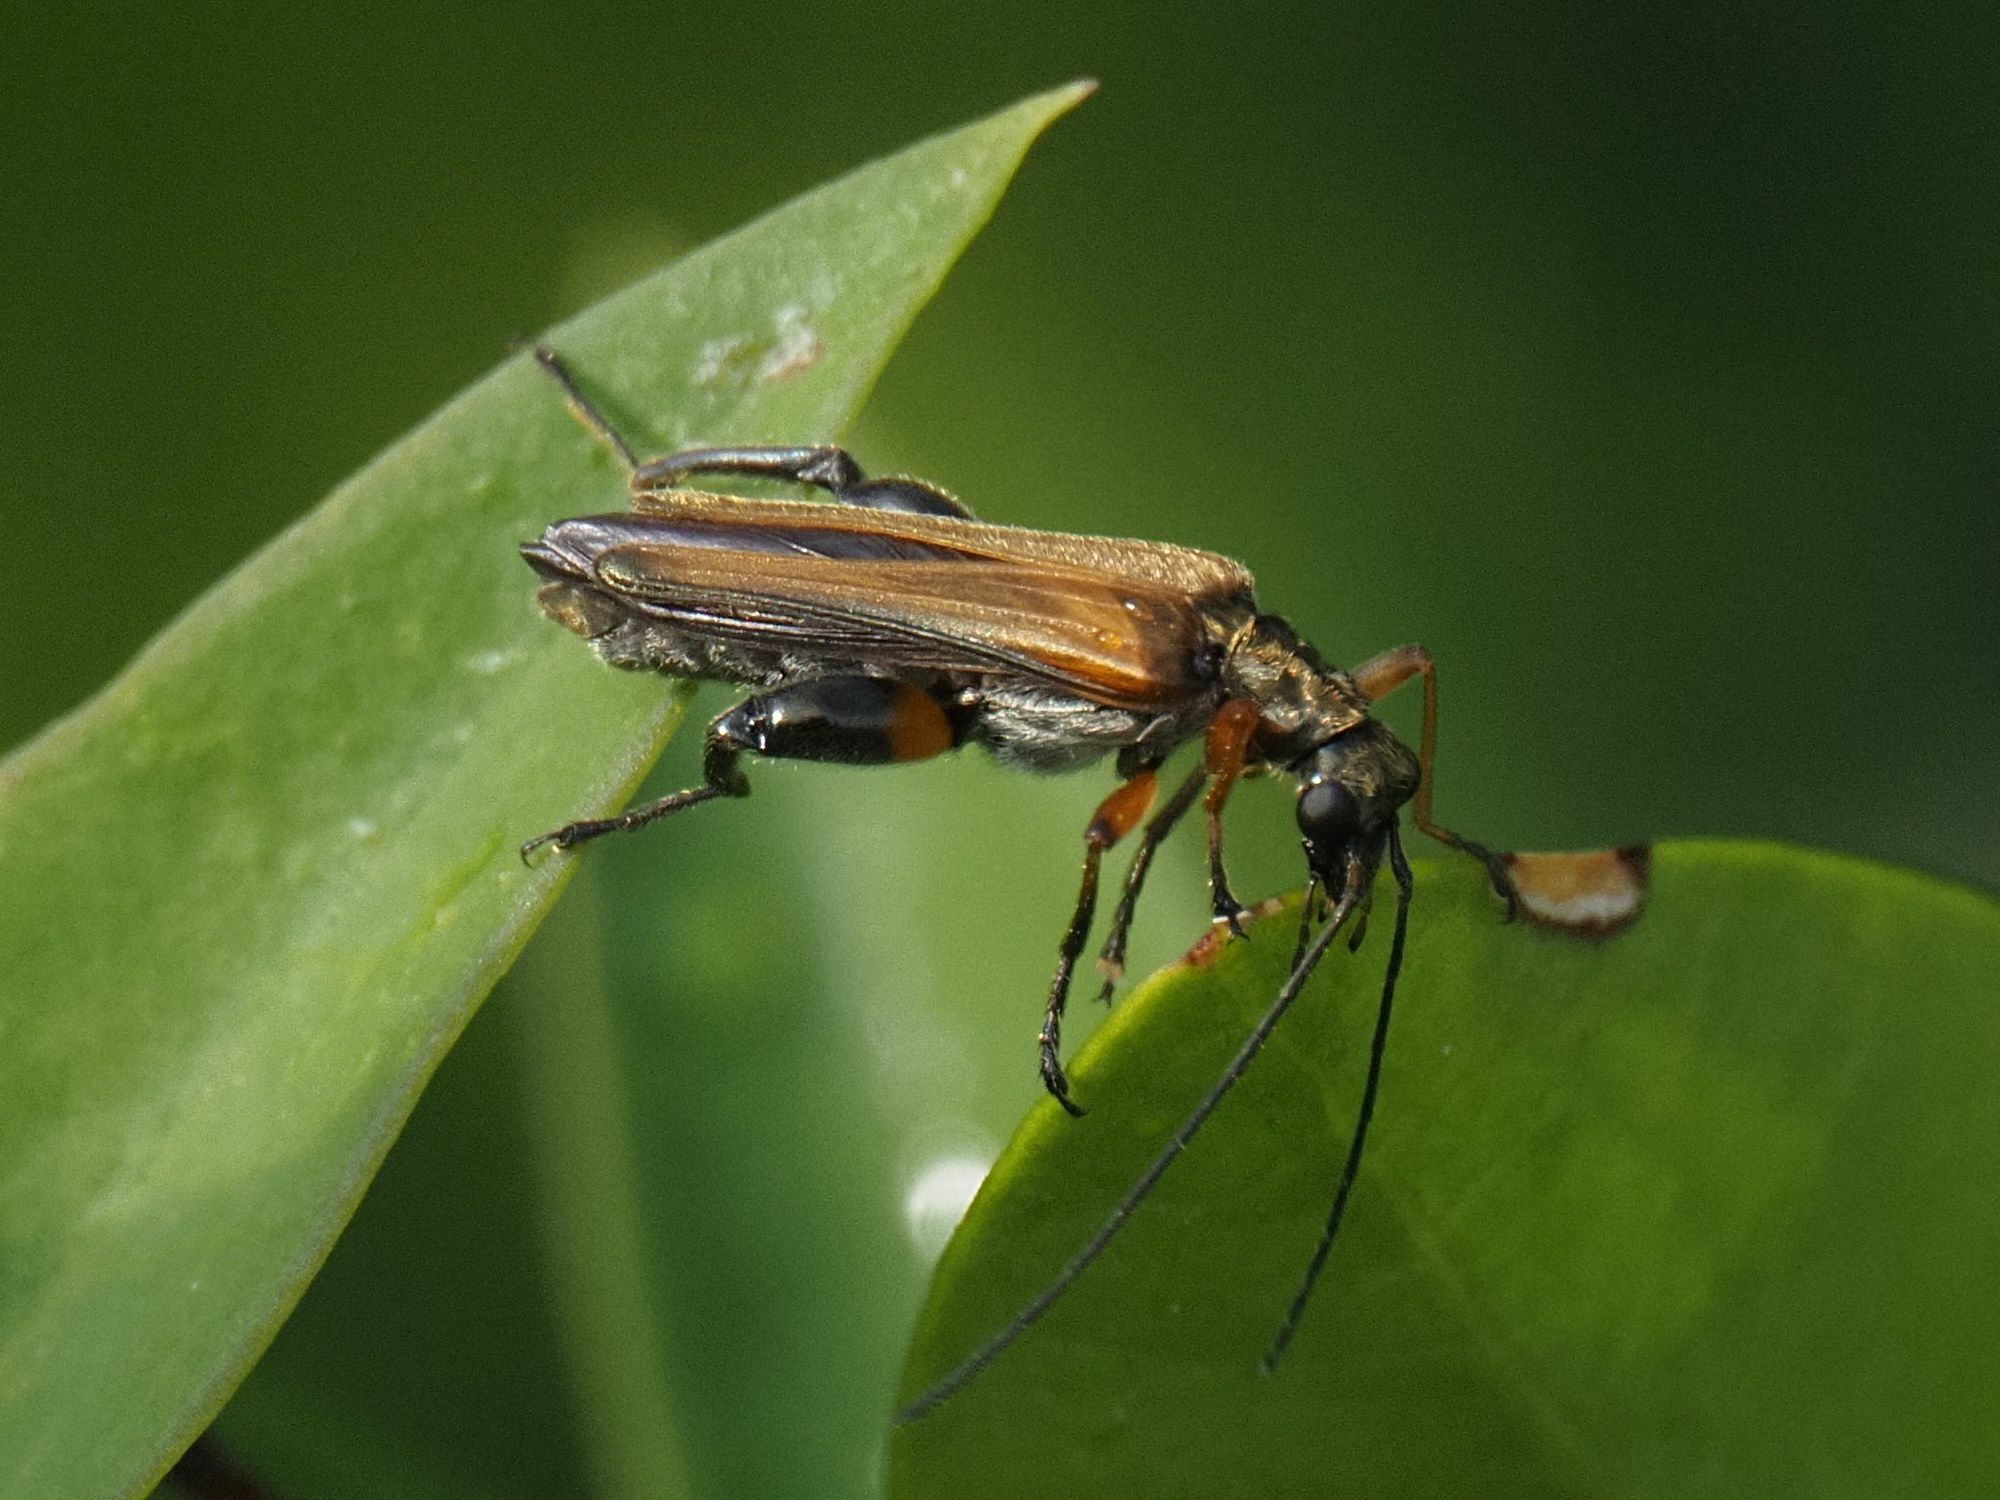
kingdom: Animalia
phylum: Arthropoda
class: Insecta
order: Coleoptera
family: Oedemeridae
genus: Oedemera
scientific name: Oedemera podagrariae
